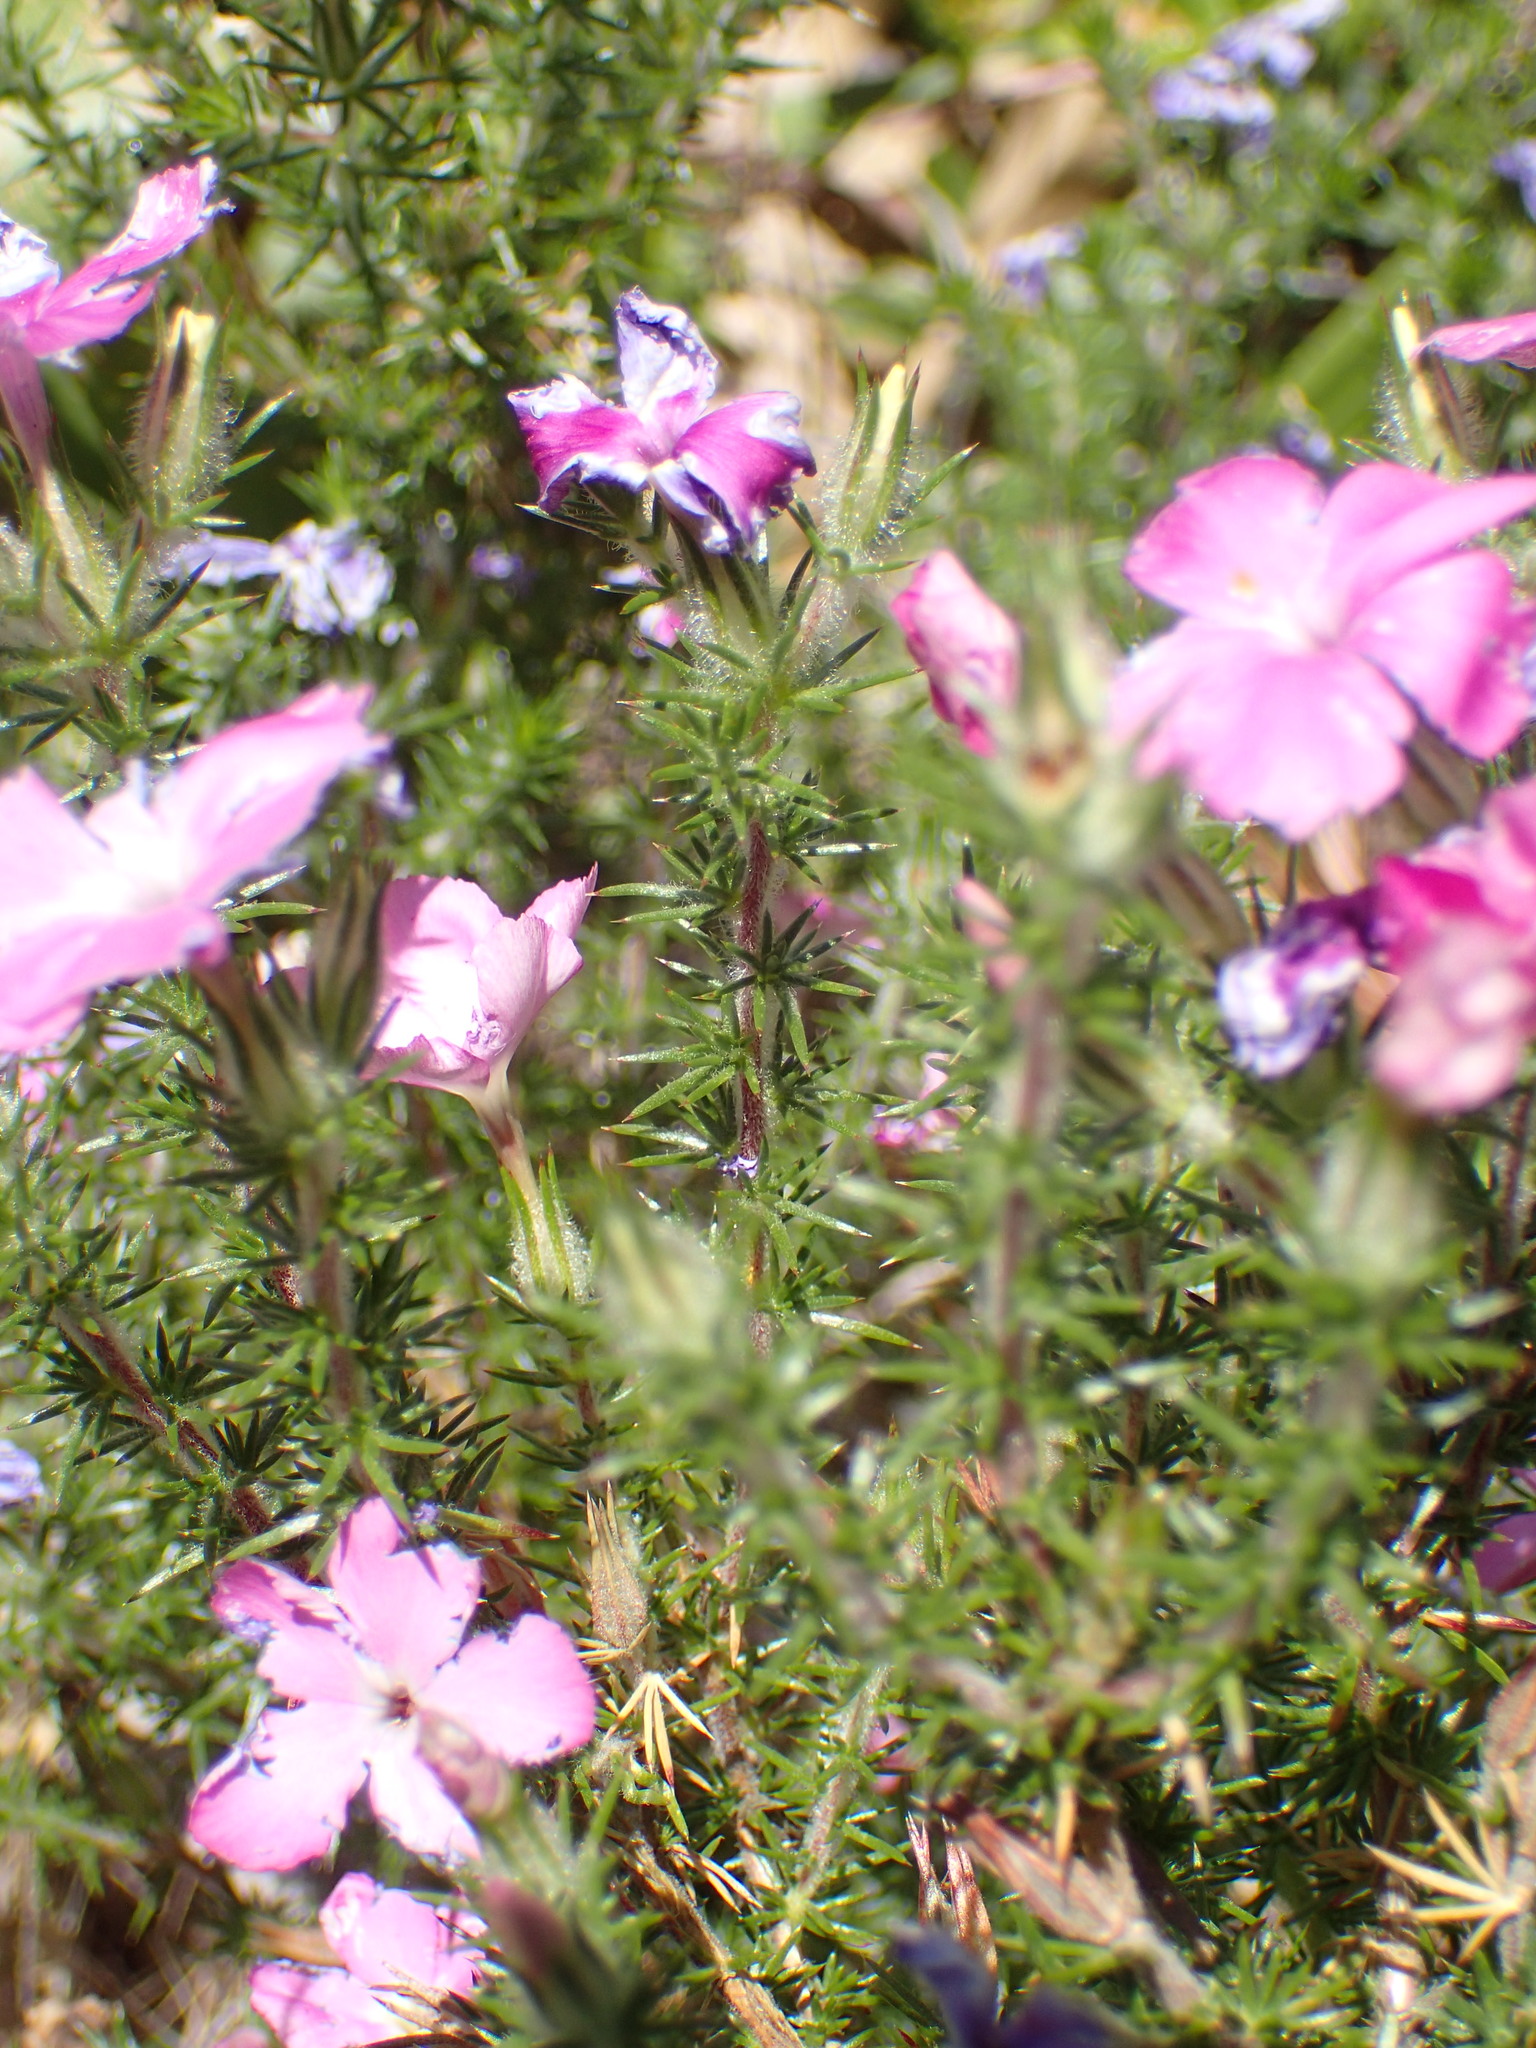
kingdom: Plantae
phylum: Tracheophyta
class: Magnoliopsida
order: Ericales
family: Polemoniaceae
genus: Linanthus
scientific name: Linanthus californicus
